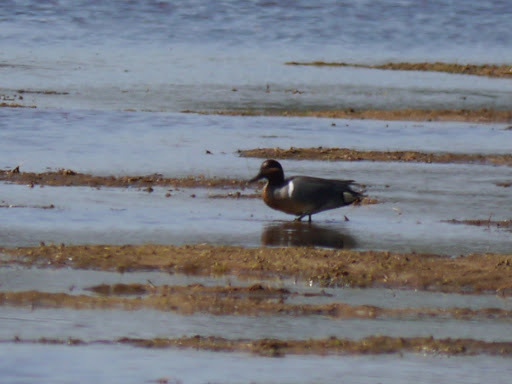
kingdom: Animalia
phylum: Chordata
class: Aves
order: Anseriformes
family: Anatidae
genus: Anas
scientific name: Anas crecca
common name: Eurasian teal
